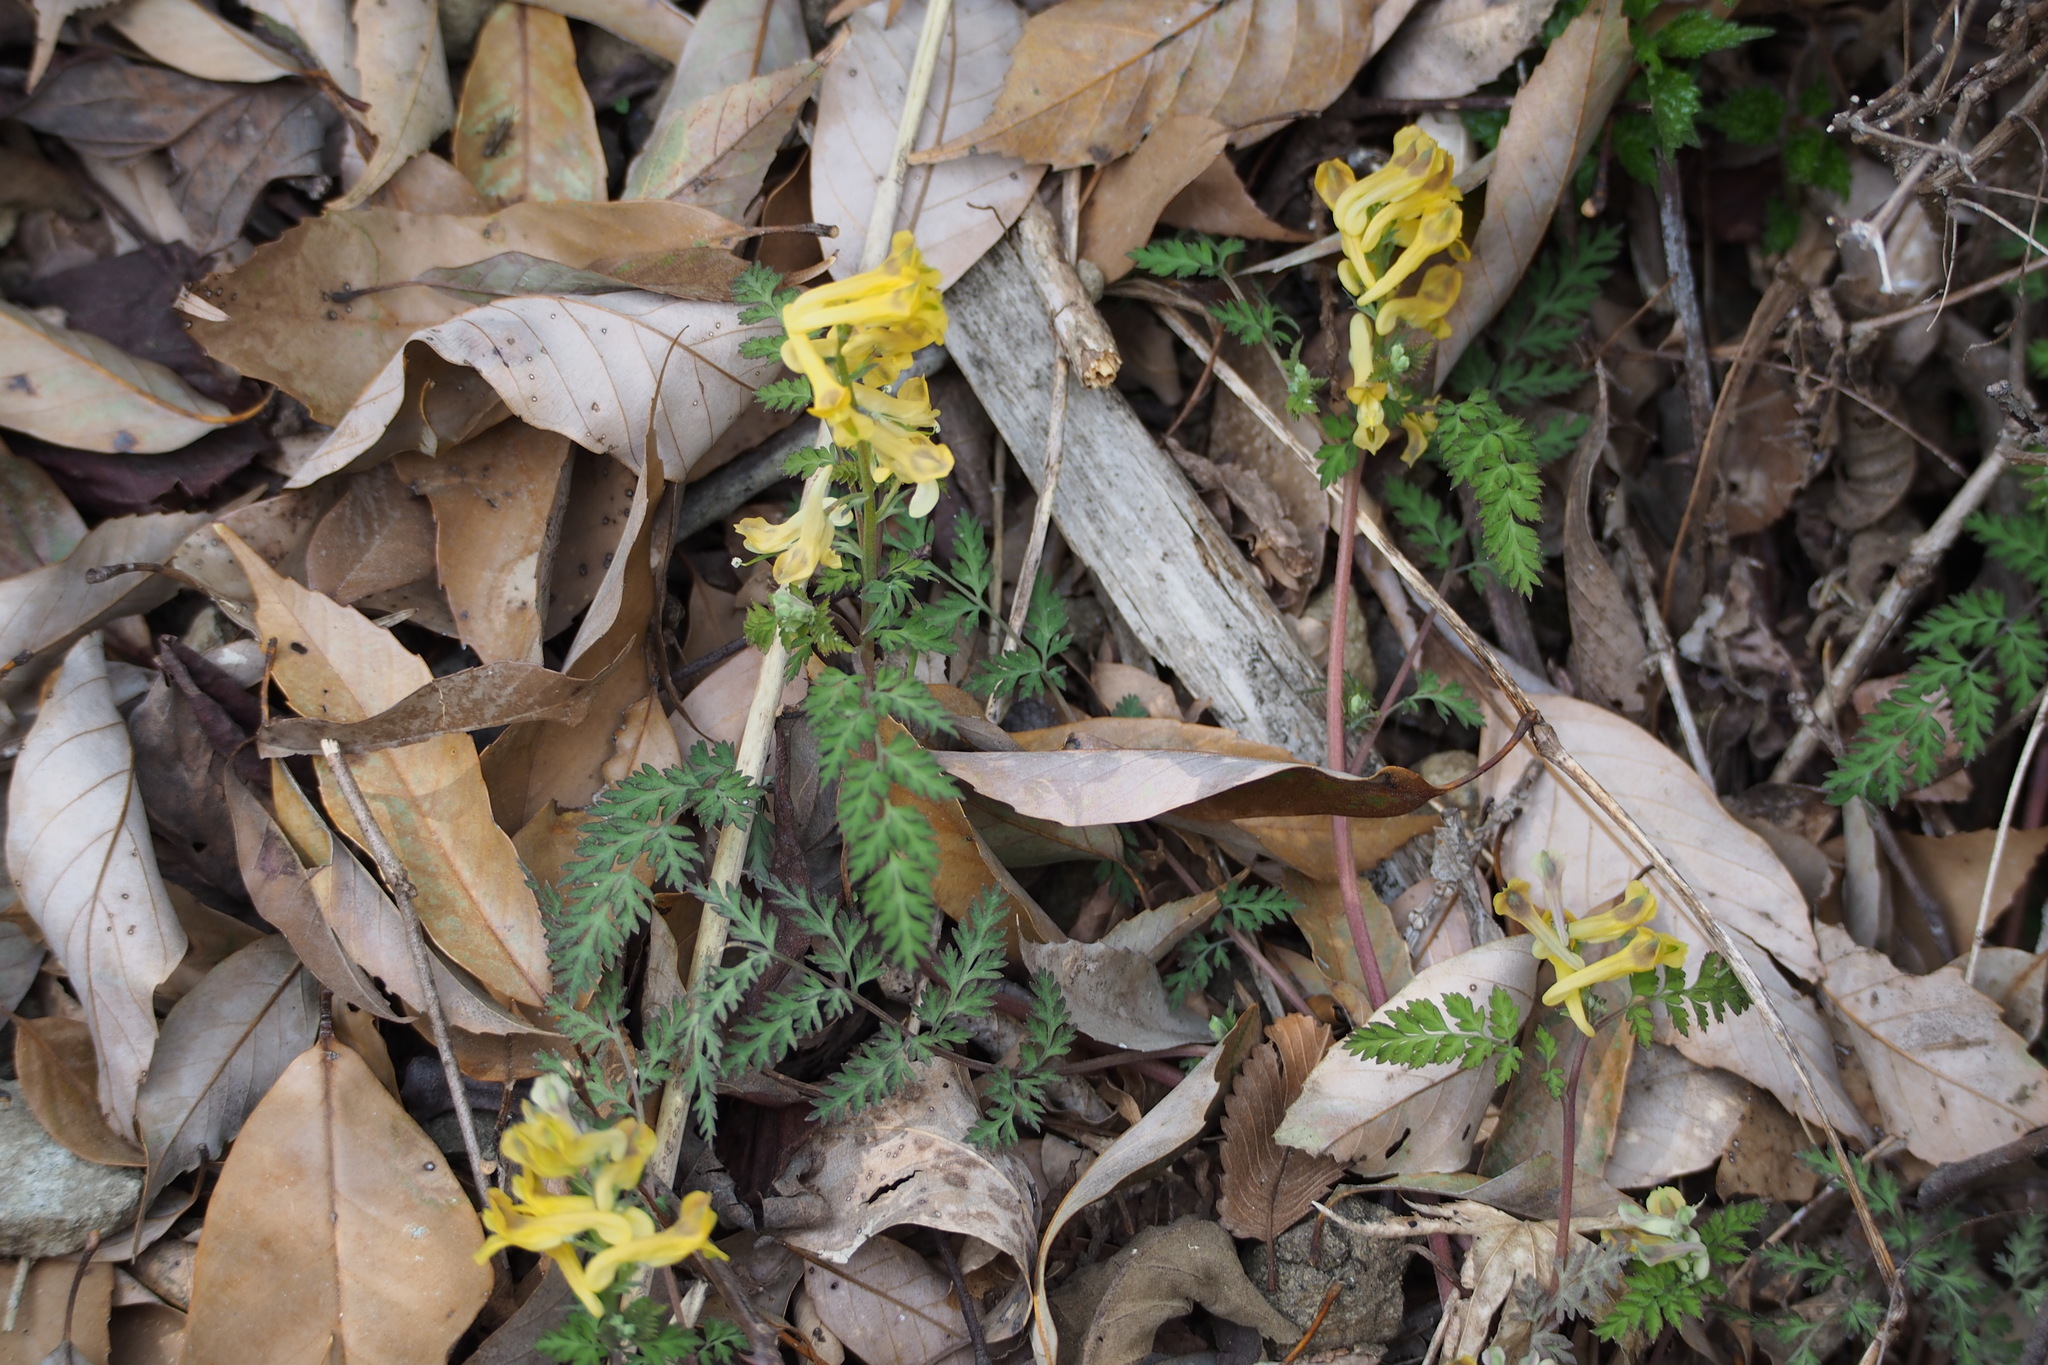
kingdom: Plantae
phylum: Tracheophyta
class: Magnoliopsida
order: Ranunculales
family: Papaveraceae
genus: Corydalis
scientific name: Corydalis pallida
